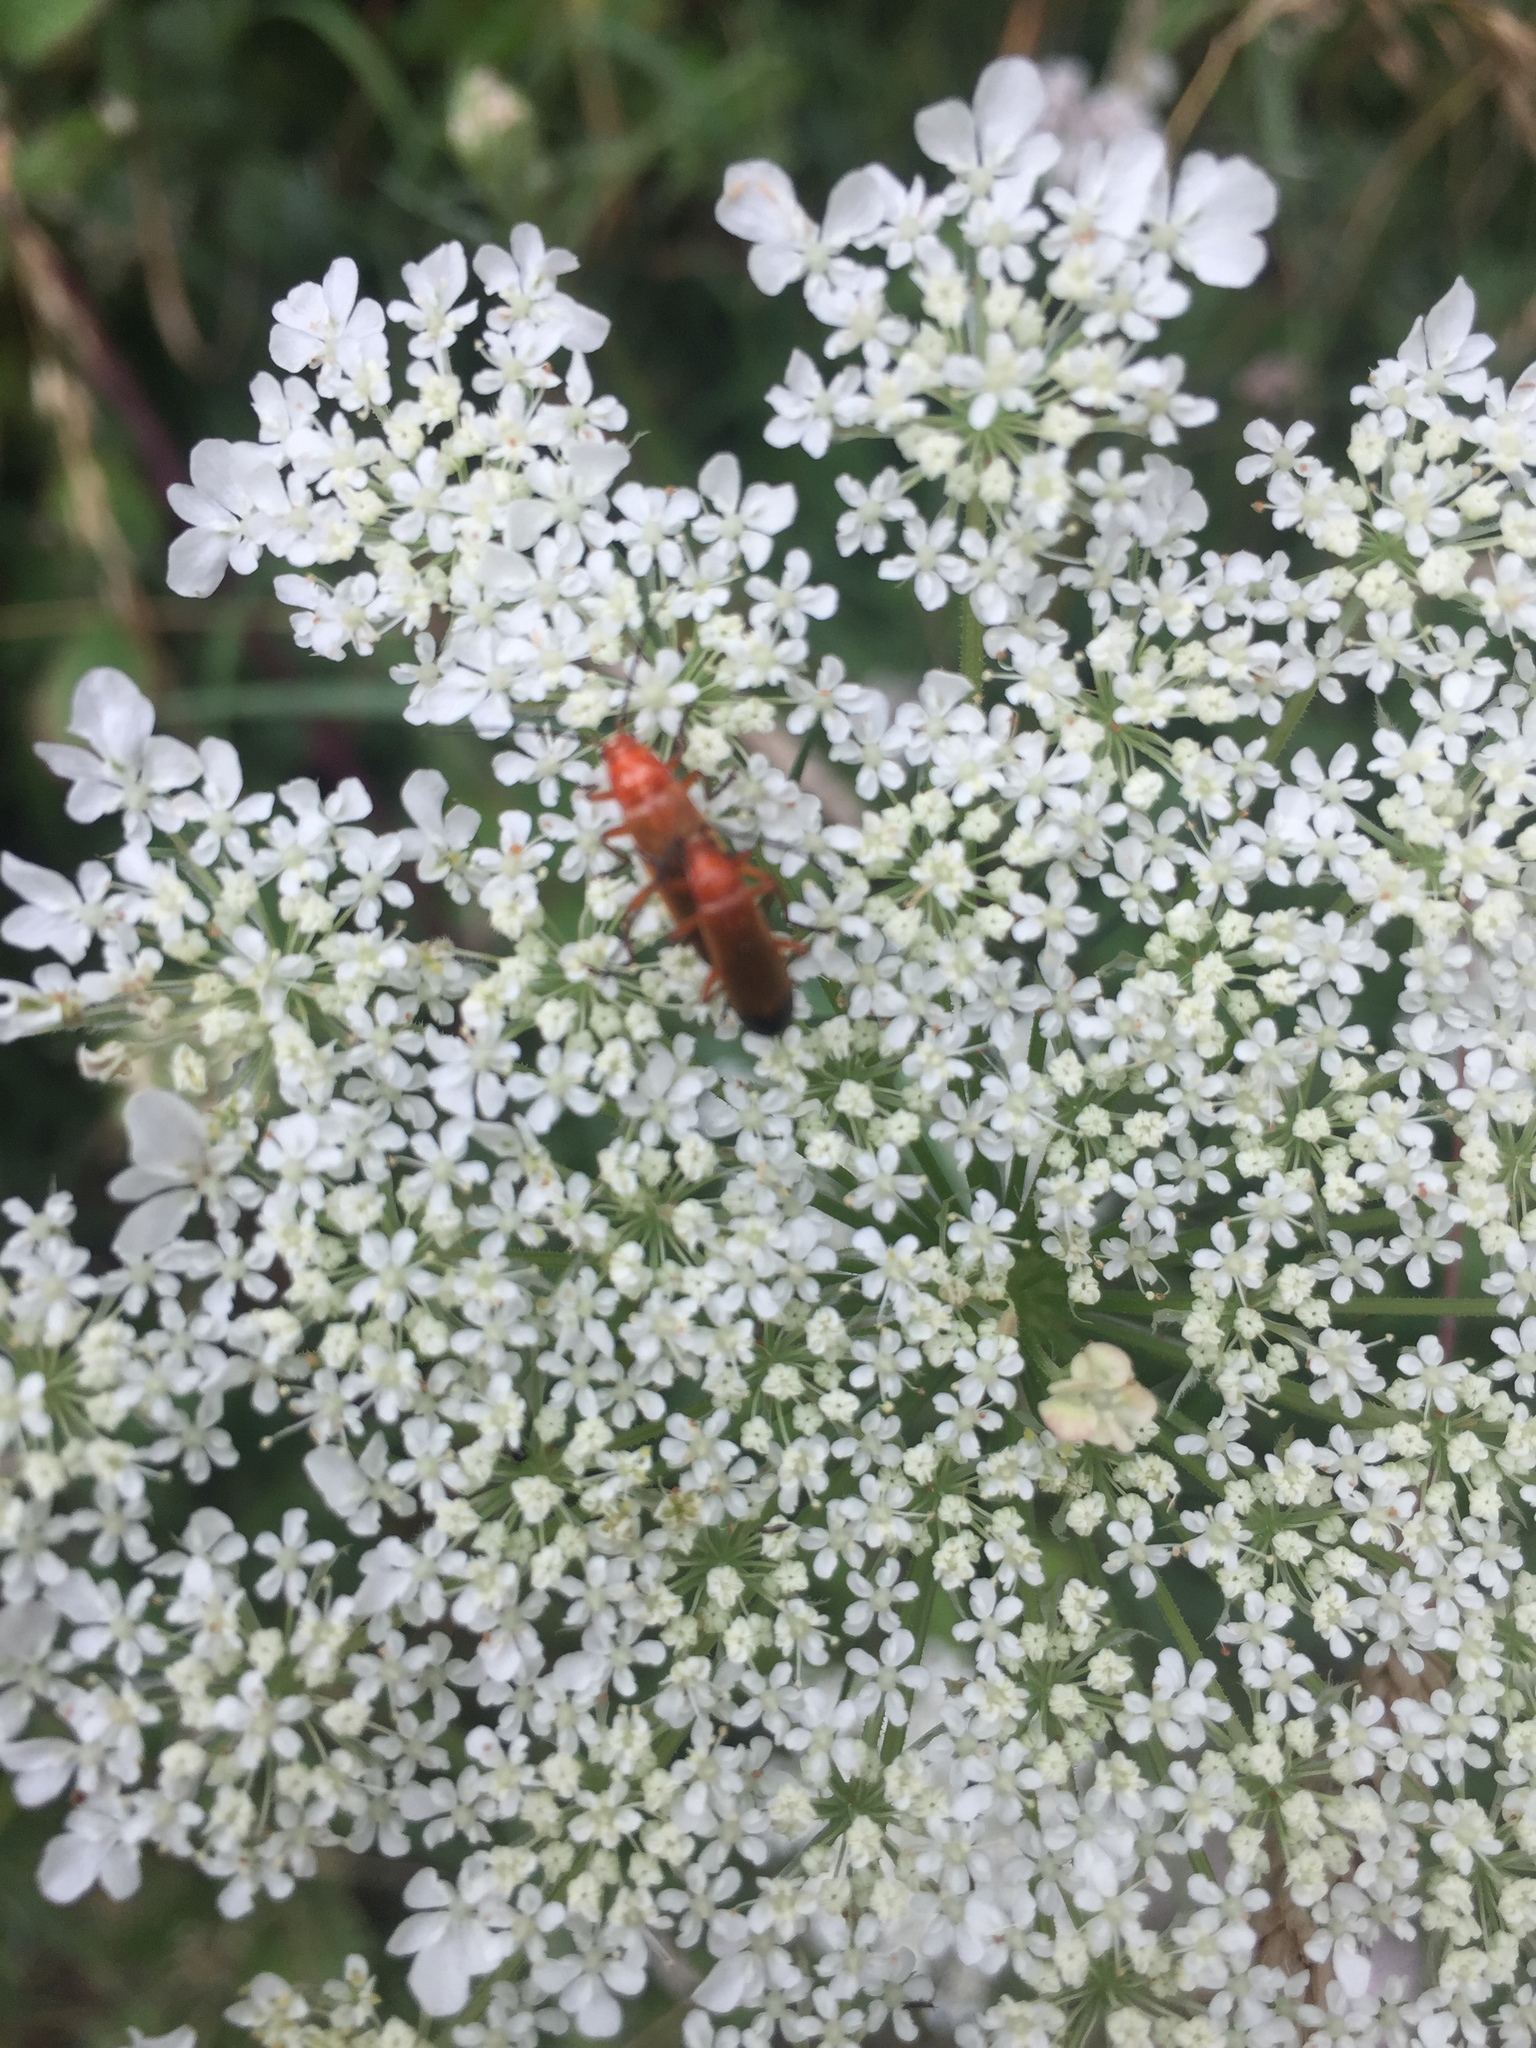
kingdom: Animalia
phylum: Arthropoda
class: Insecta
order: Coleoptera
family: Cantharidae
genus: Rhagonycha
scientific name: Rhagonycha fulva
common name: Common red soldier beetle
